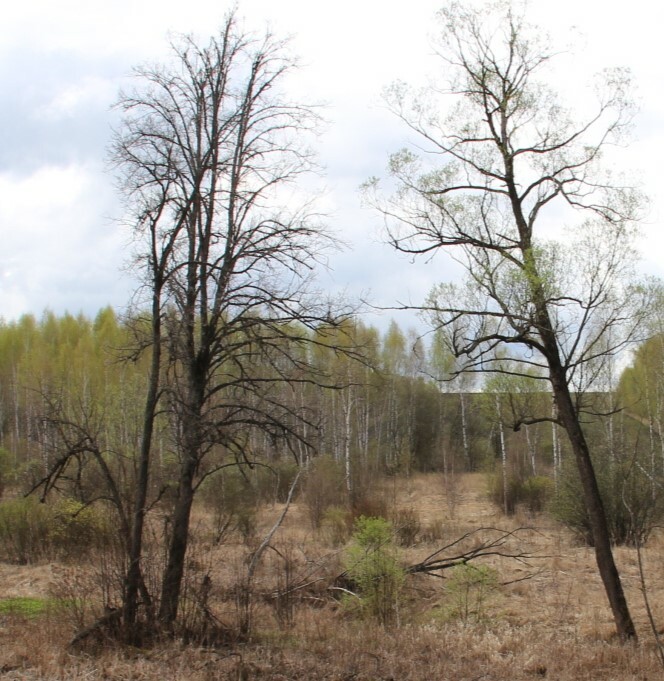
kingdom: Plantae
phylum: Tracheophyta
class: Magnoliopsida
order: Fagales
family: Betulaceae
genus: Alnus
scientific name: Alnus glutinosa
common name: Black alder
